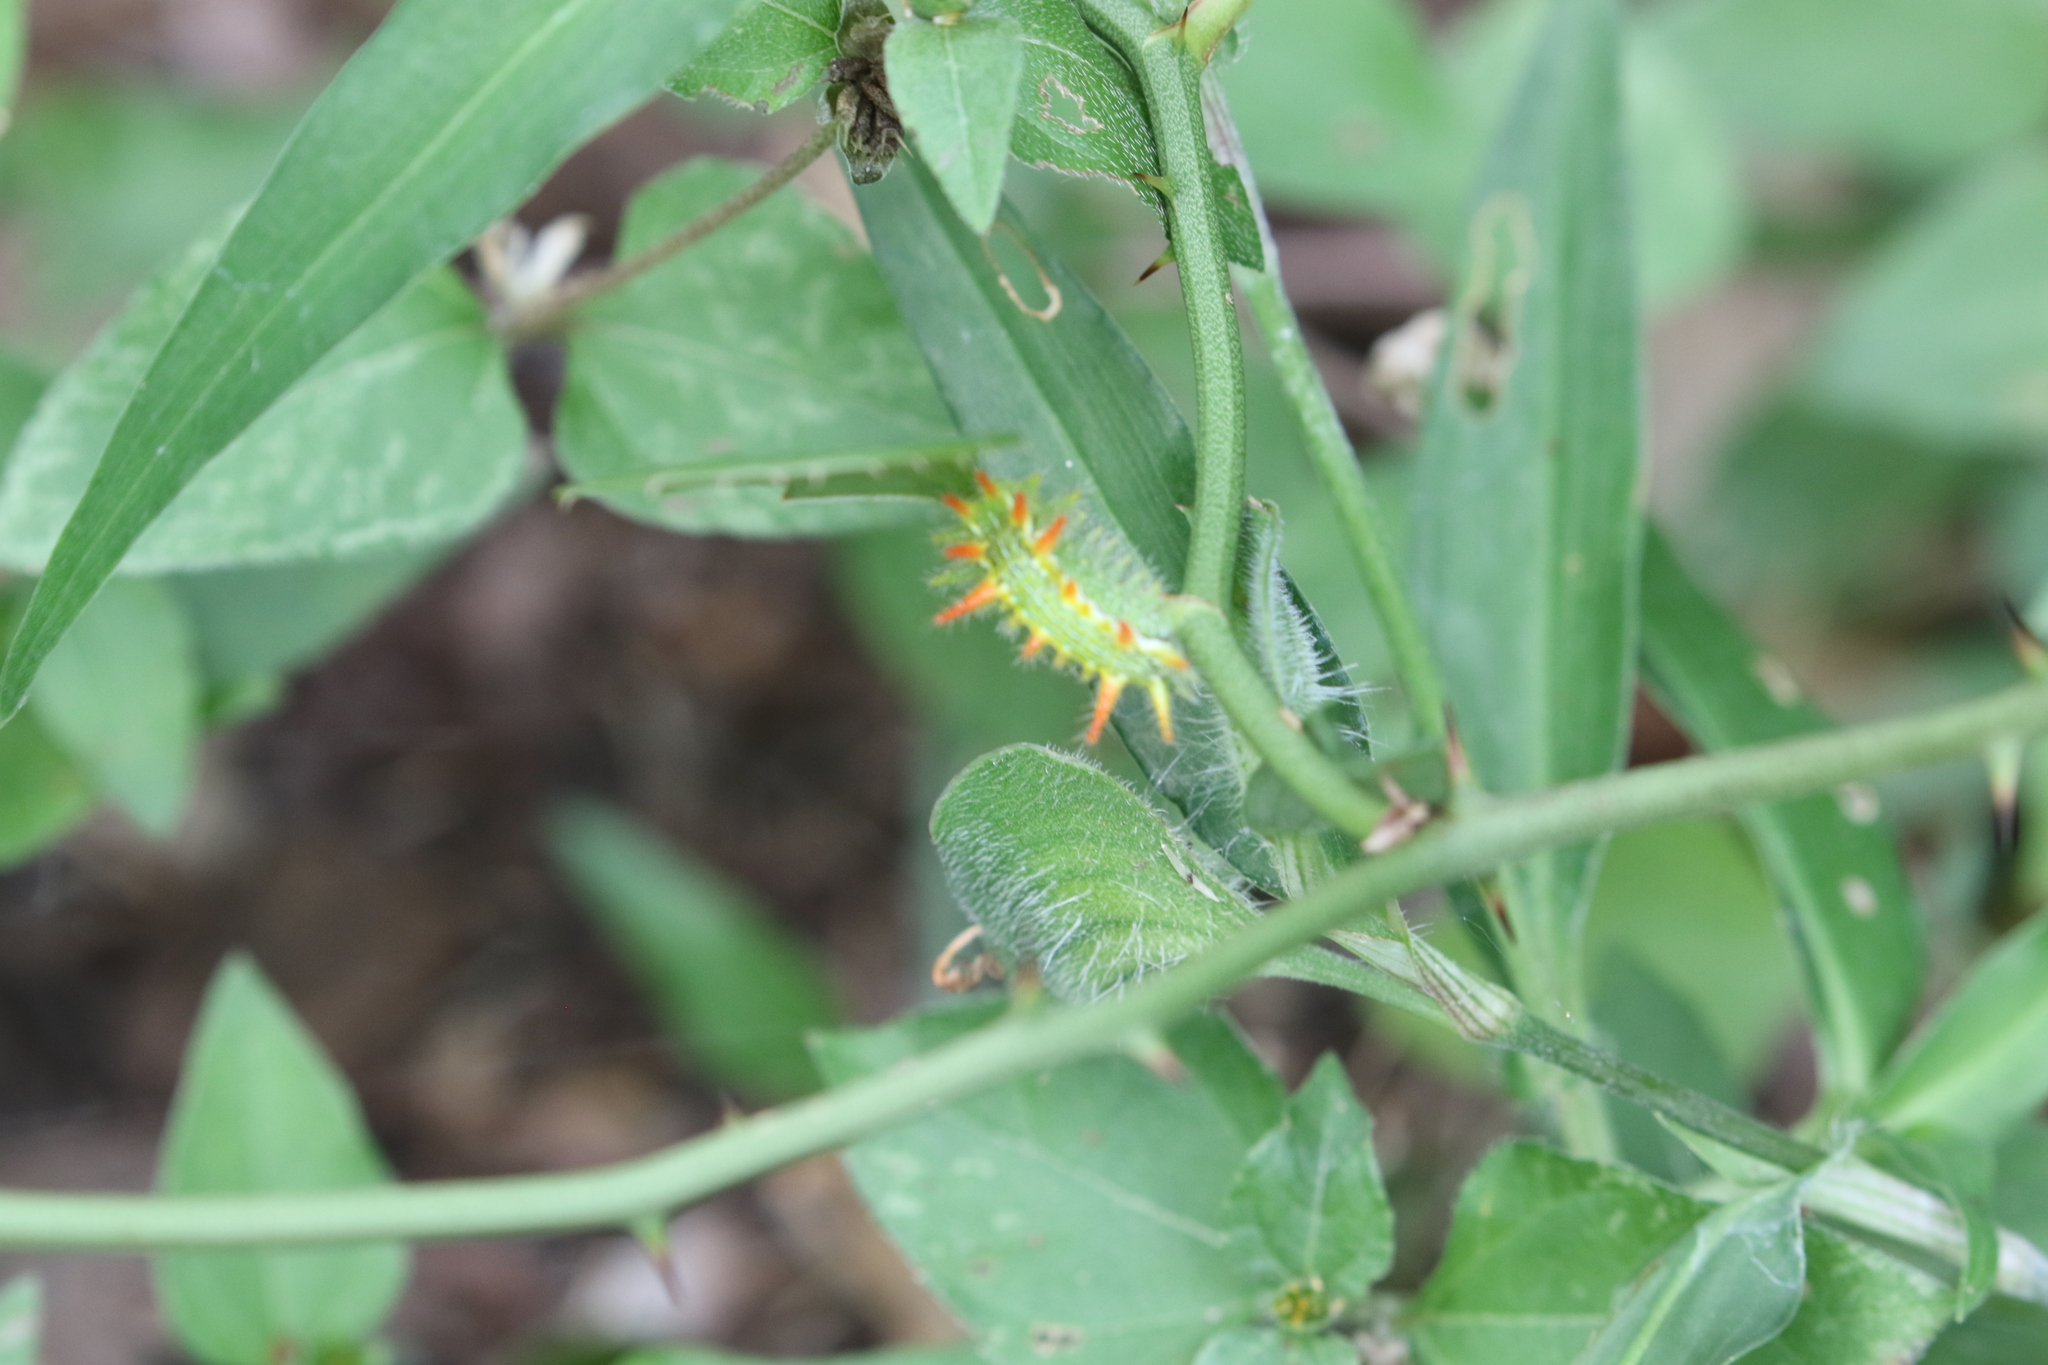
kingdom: Animalia
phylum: Arthropoda
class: Insecta
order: Lepidoptera
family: Limacodidae
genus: Euclea
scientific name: Euclea incisa
